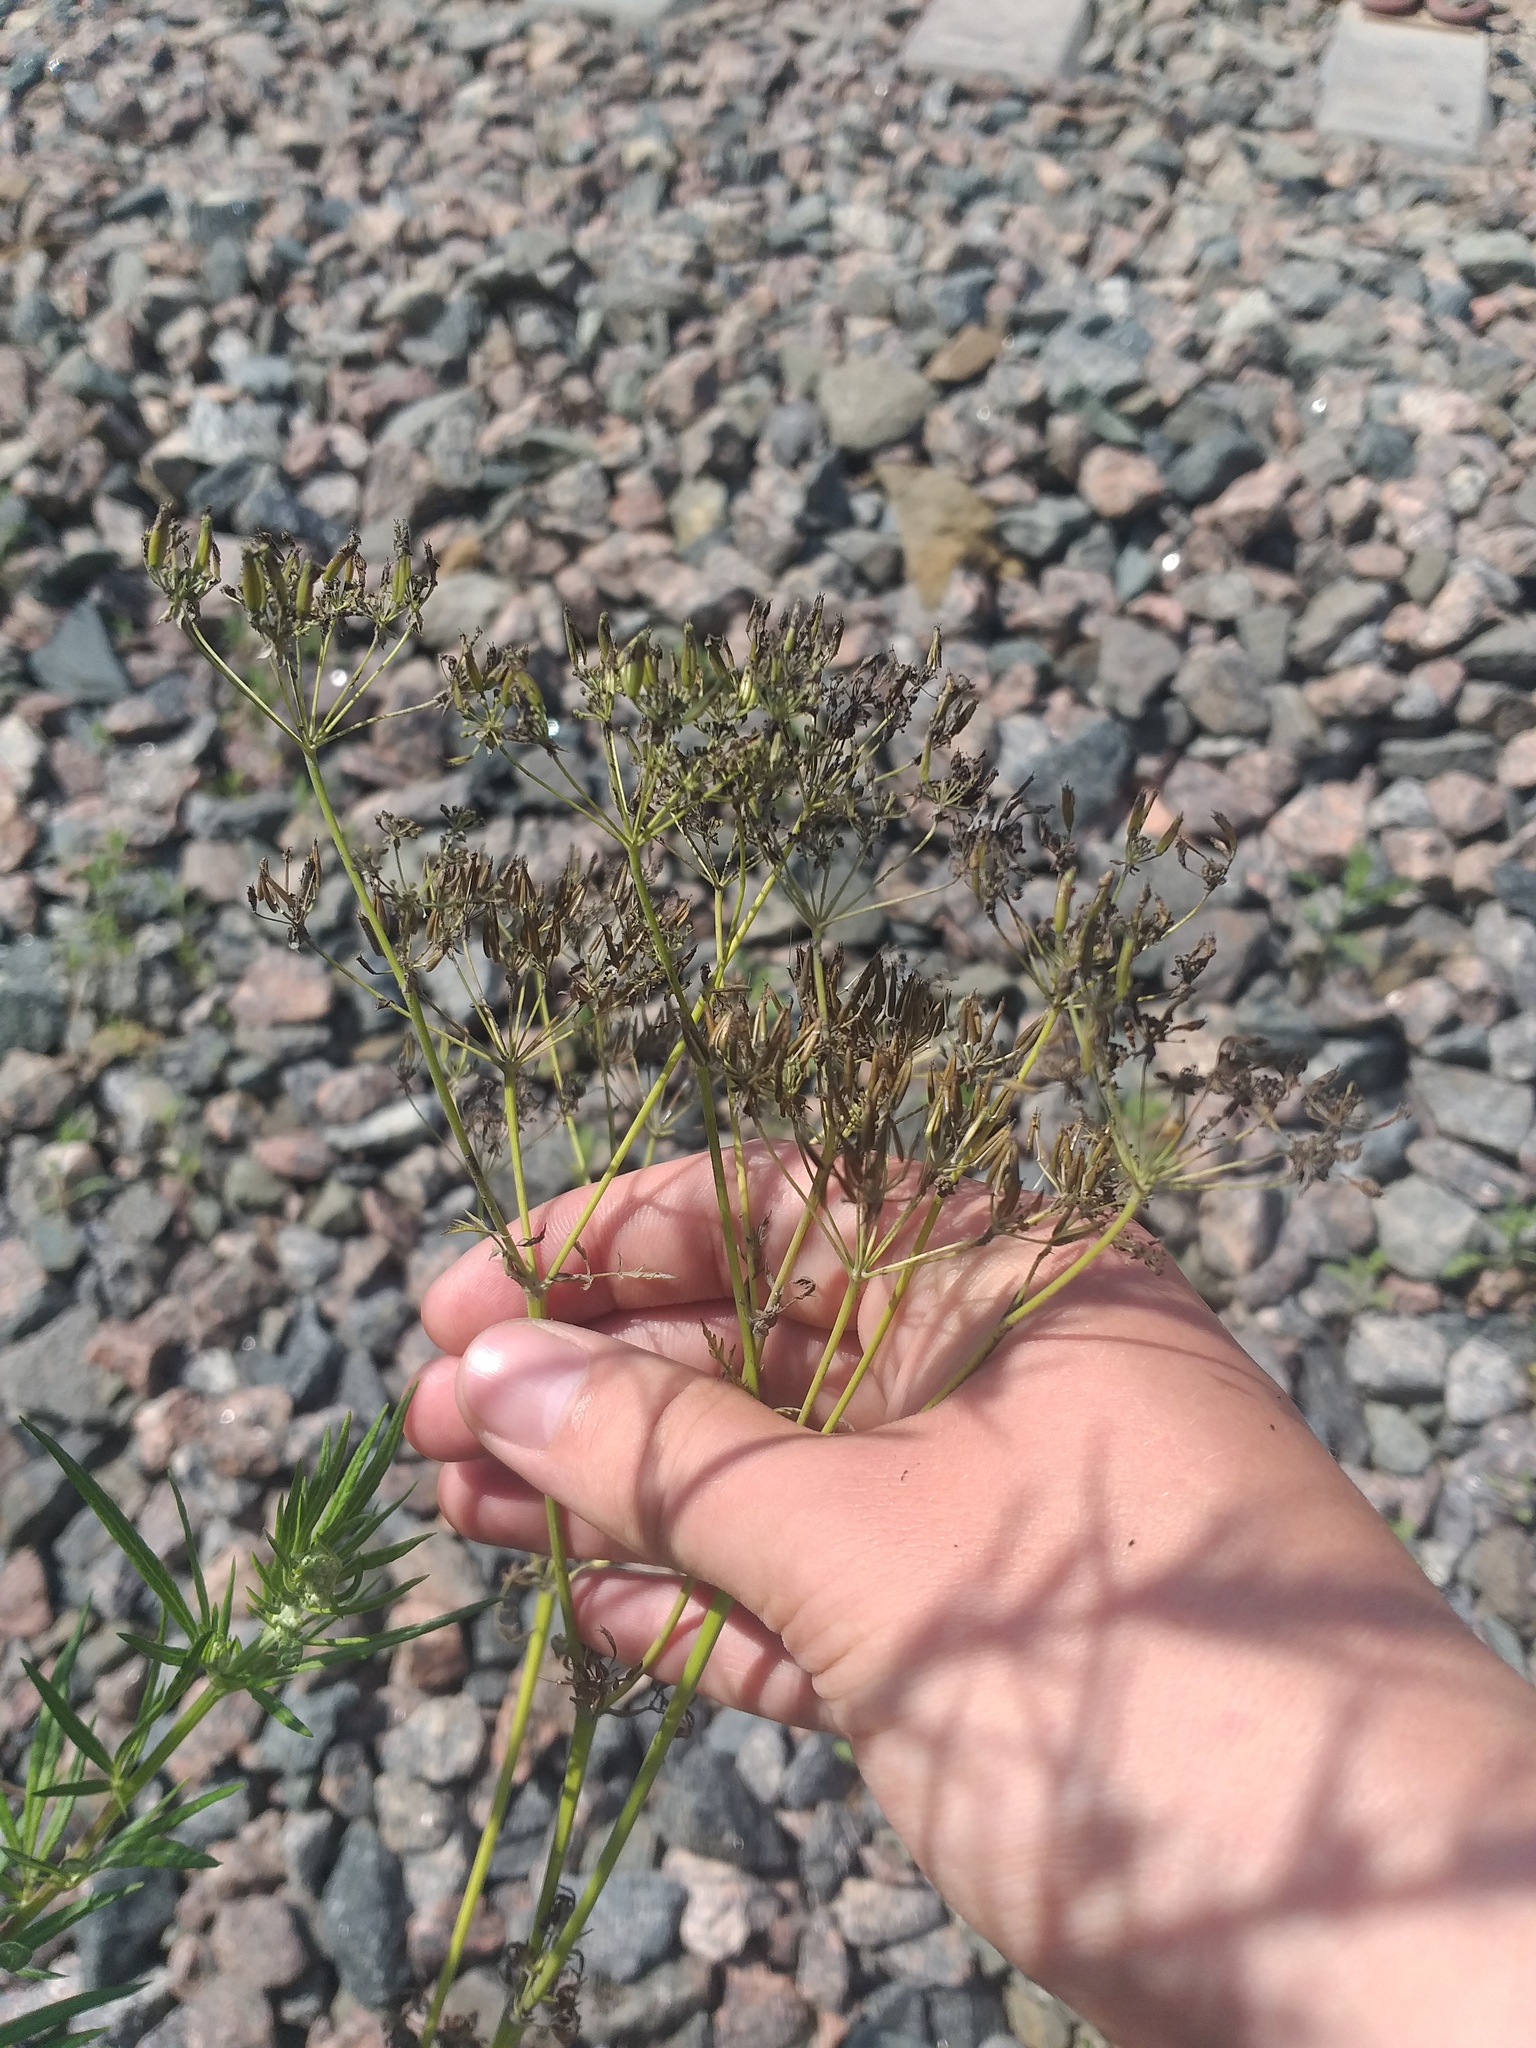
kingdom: Plantae
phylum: Tracheophyta
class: Magnoliopsida
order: Apiales
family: Apiaceae
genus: Anthriscus
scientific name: Anthriscus sylvestris
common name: Cow parsley
